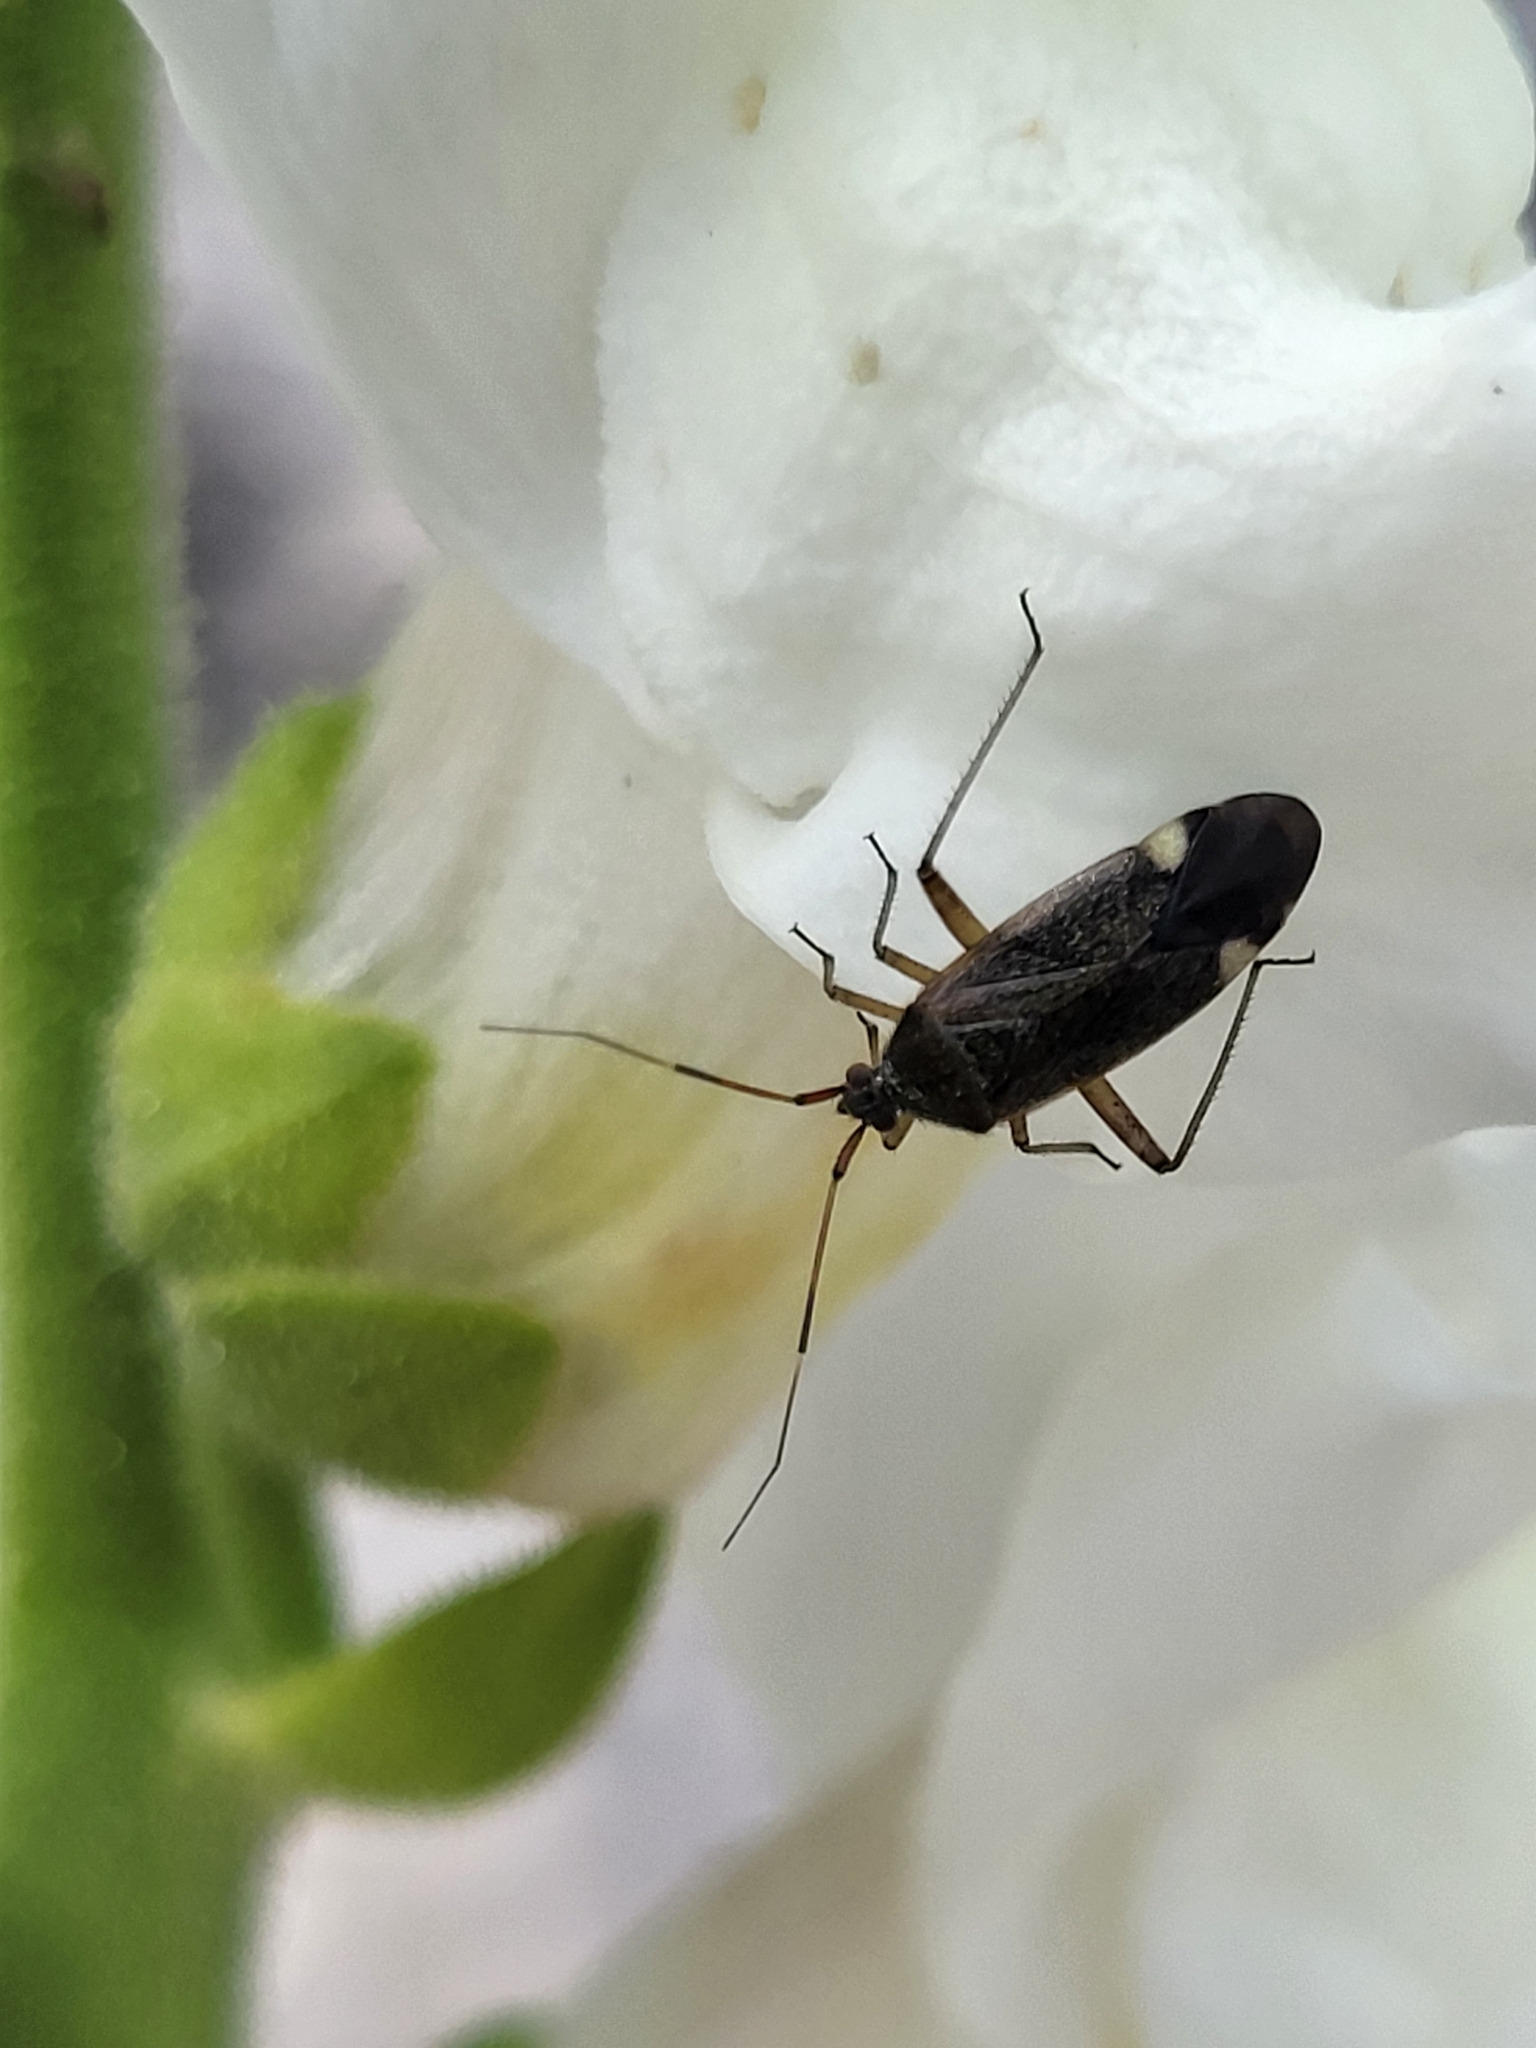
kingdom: Animalia
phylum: Arthropoda
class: Insecta
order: Hemiptera
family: Miridae
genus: Closterotomus
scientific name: Closterotomus annulus
